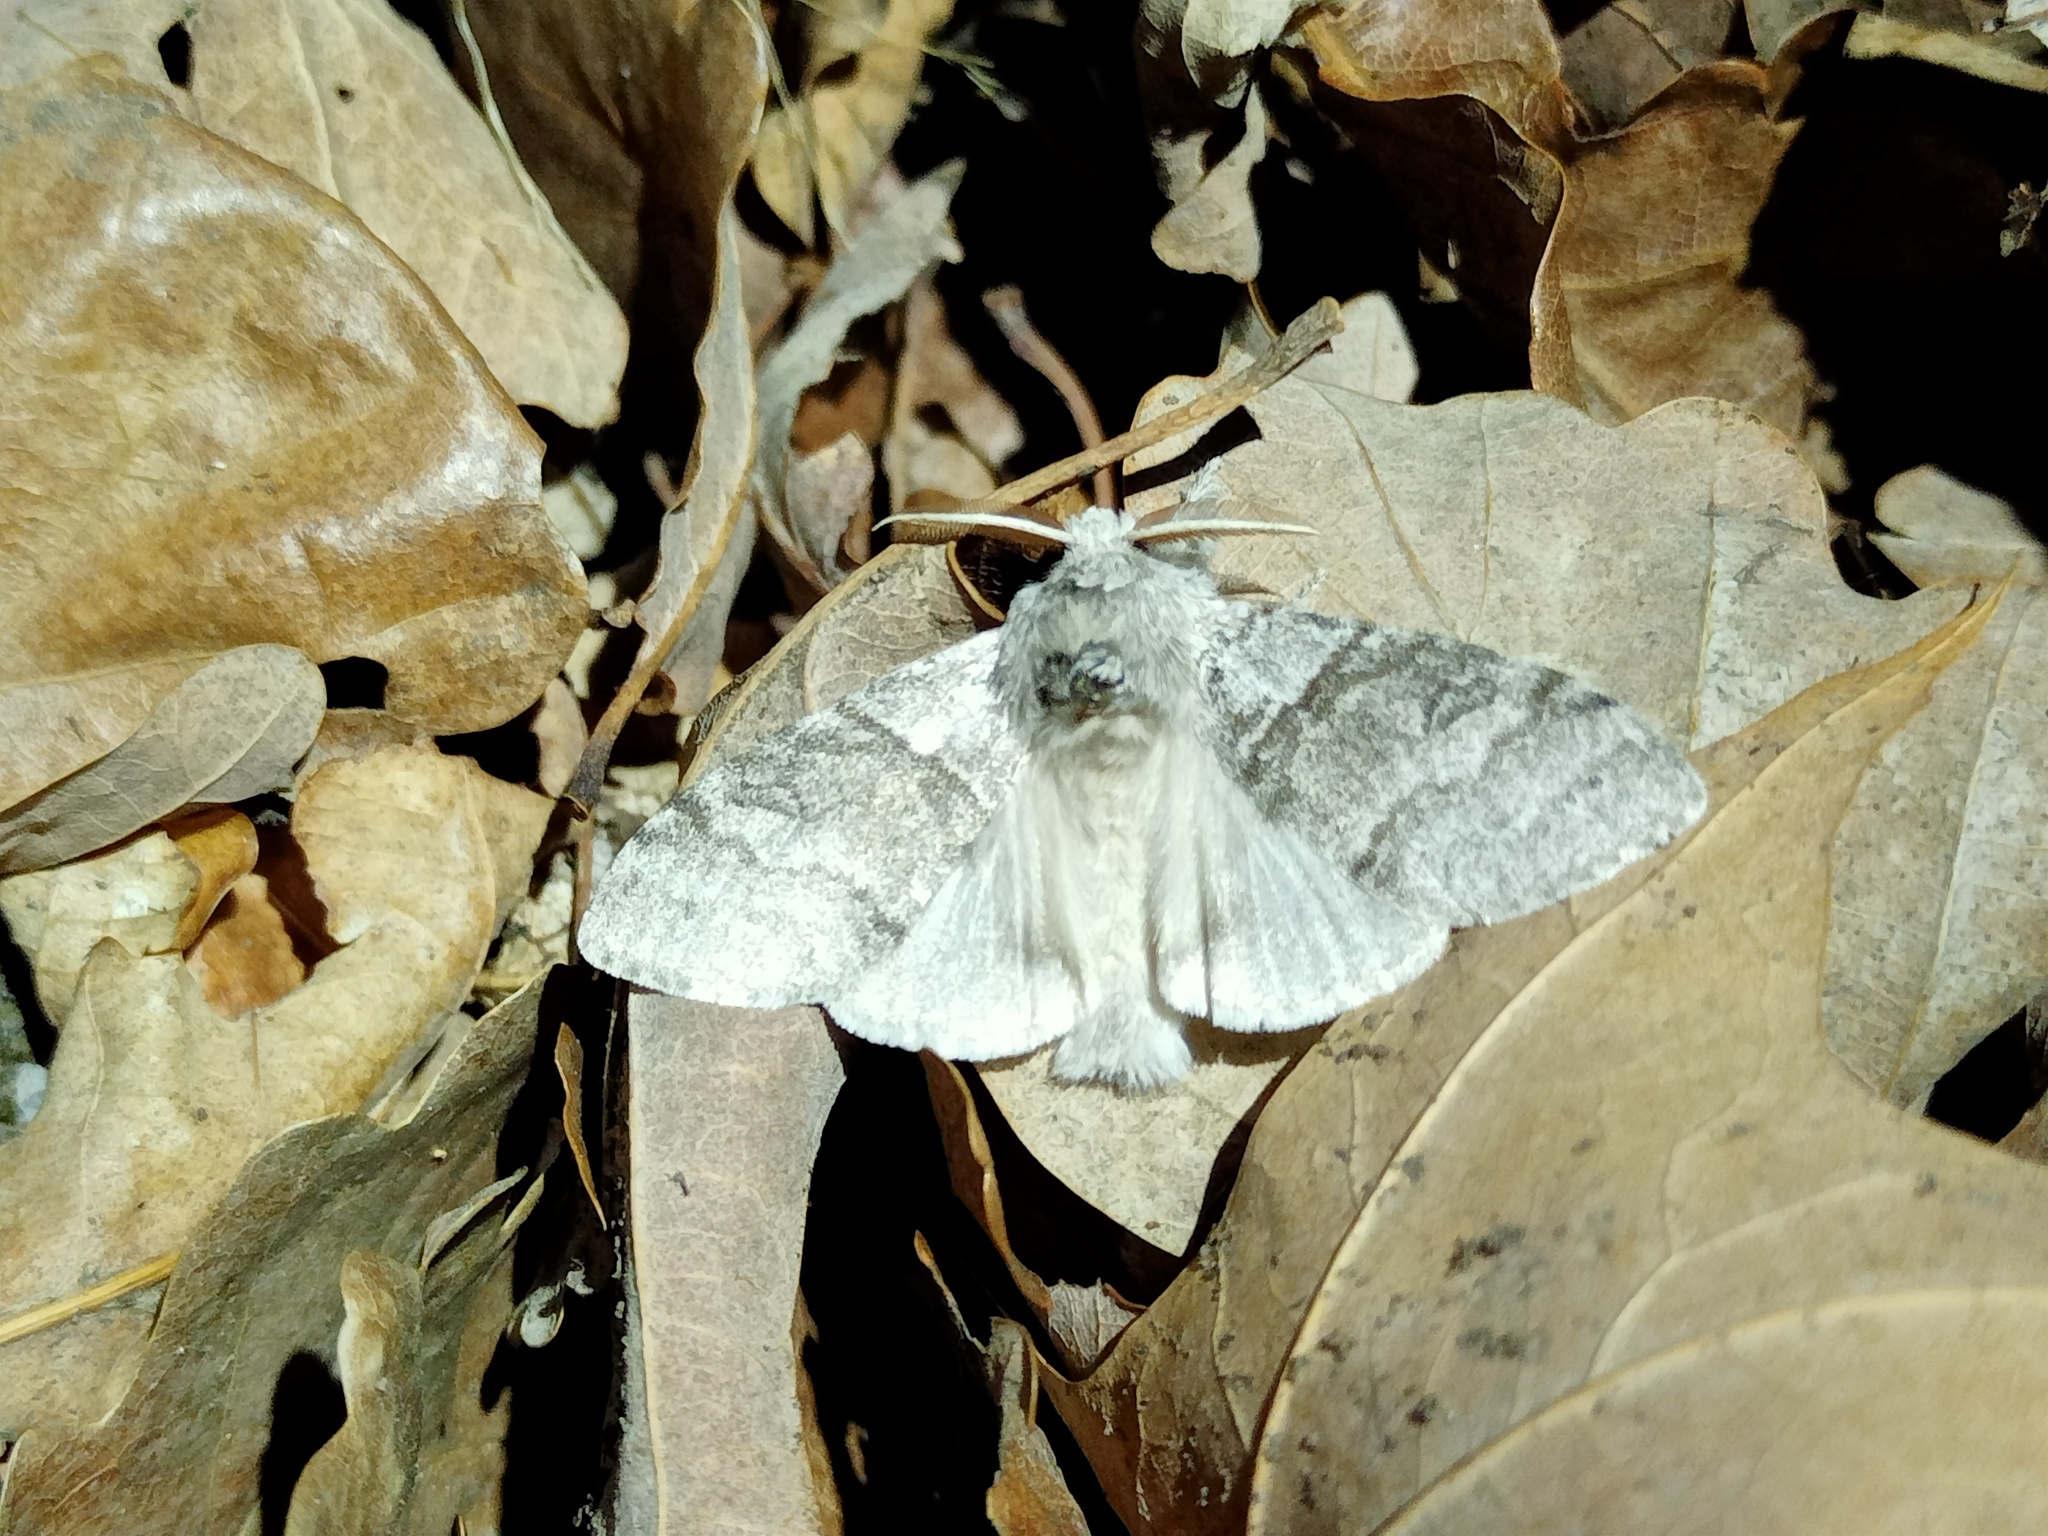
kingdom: Animalia
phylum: Arthropoda
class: Insecta
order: Lepidoptera
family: Erebidae
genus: Calliteara
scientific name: Calliteara pudibunda
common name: Pale tussock
